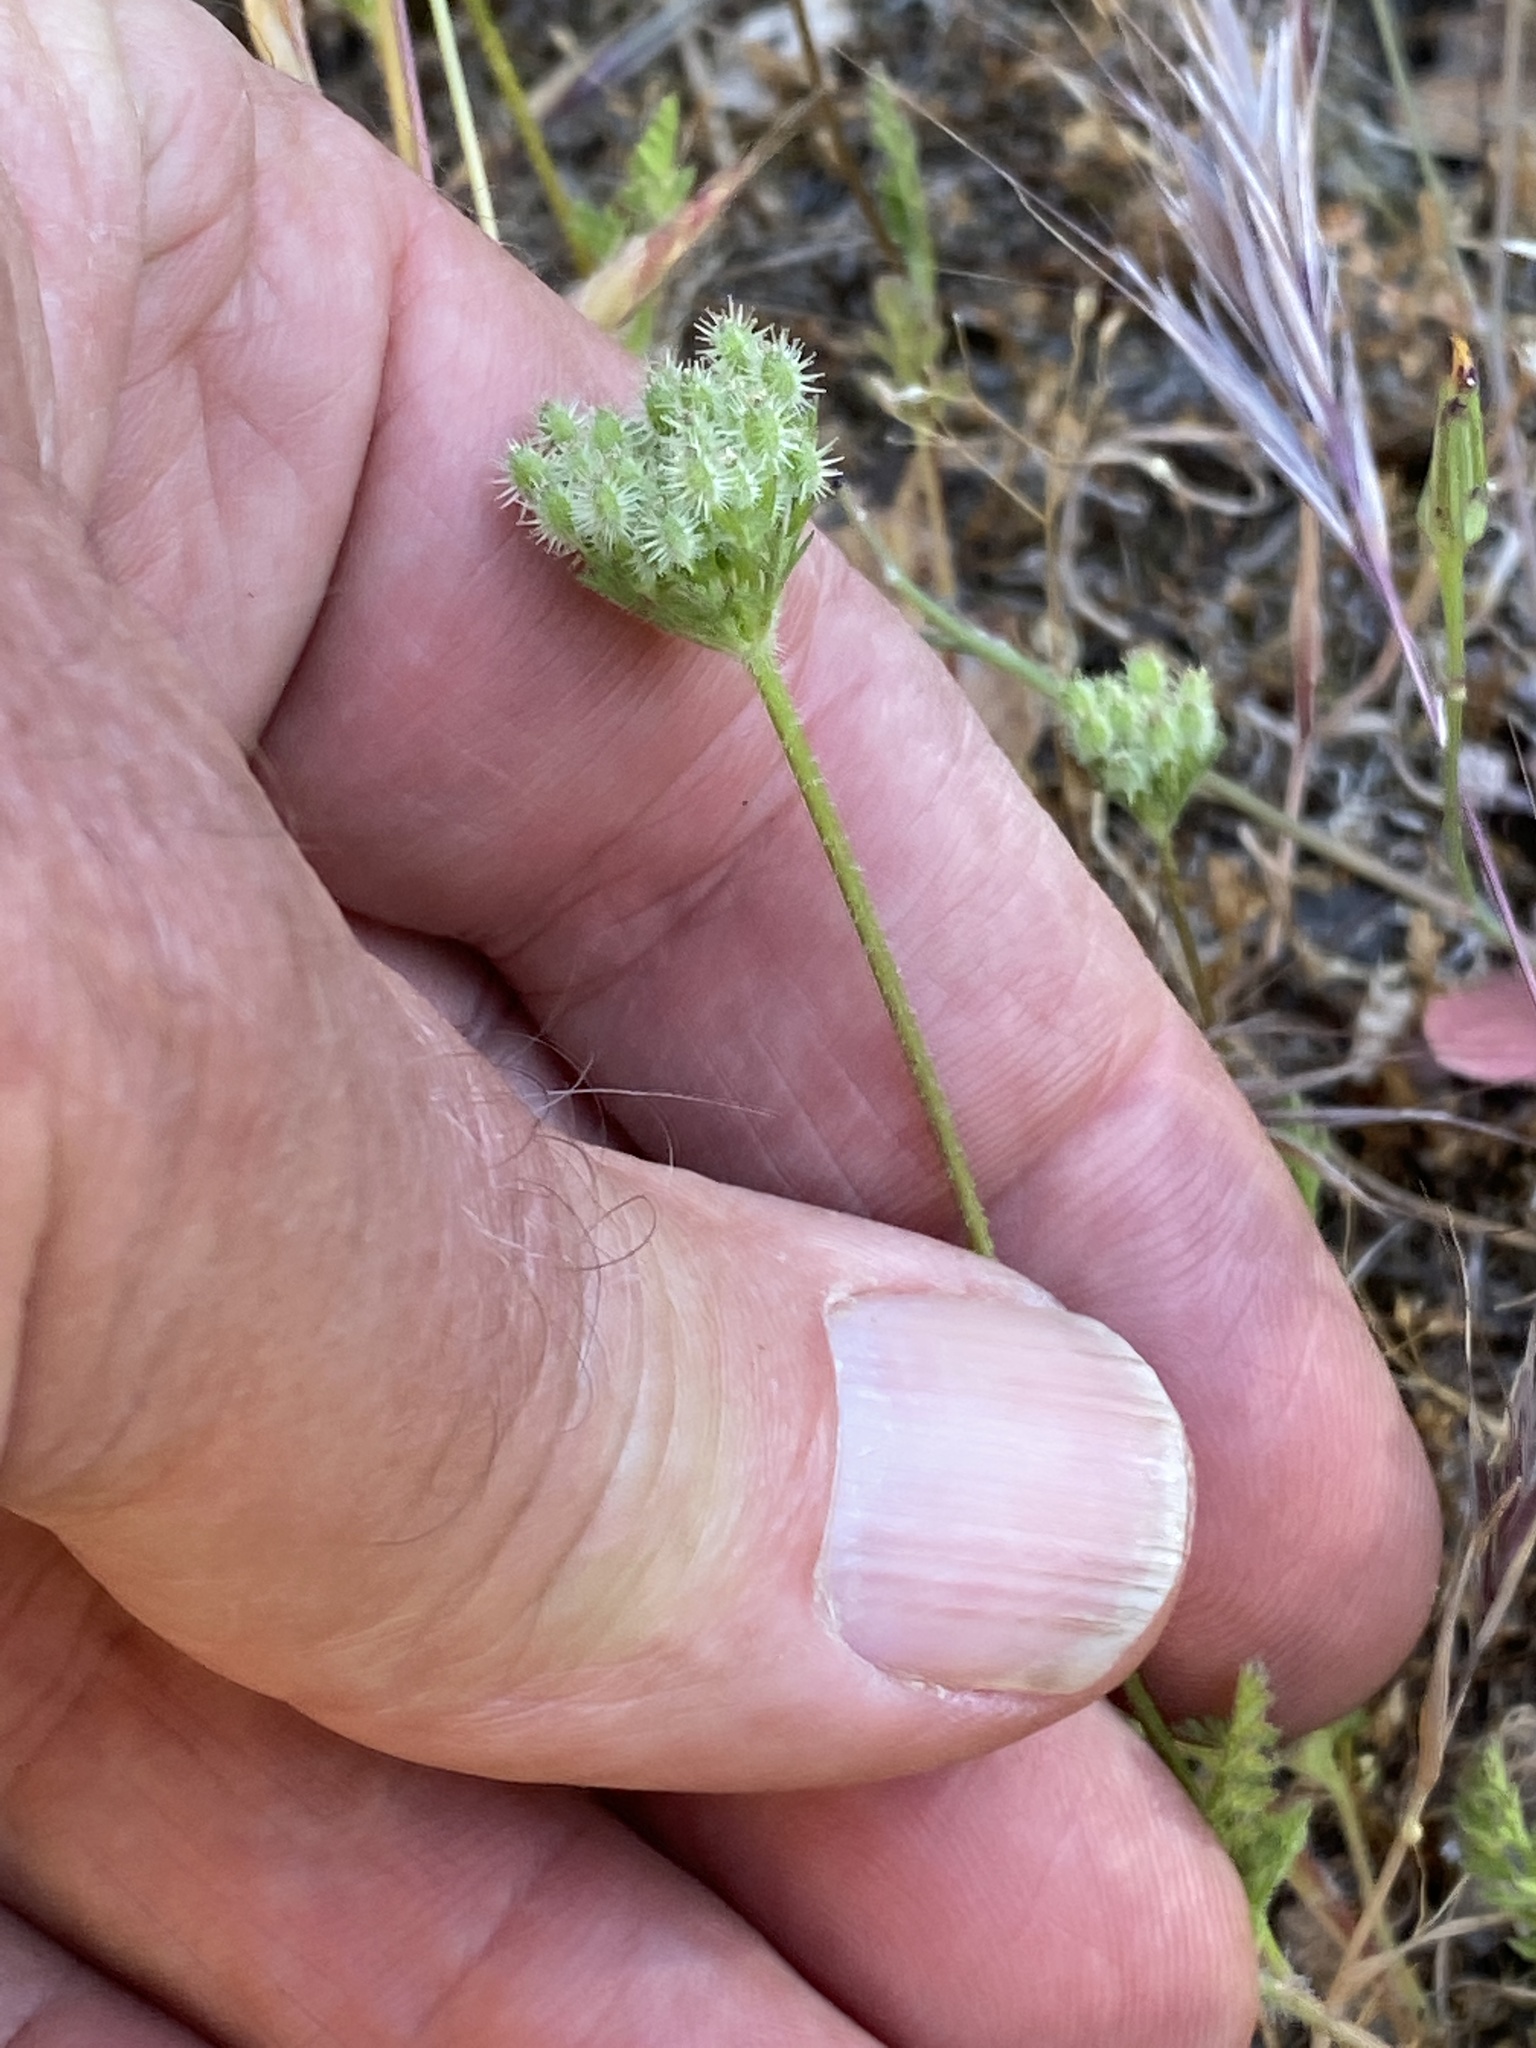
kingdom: Plantae
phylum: Tracheophyta
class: Magnoliopsida
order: Apiales
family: Apiaceae
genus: Daucus
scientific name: Daucus pusillus
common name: Southwest wild carrot
